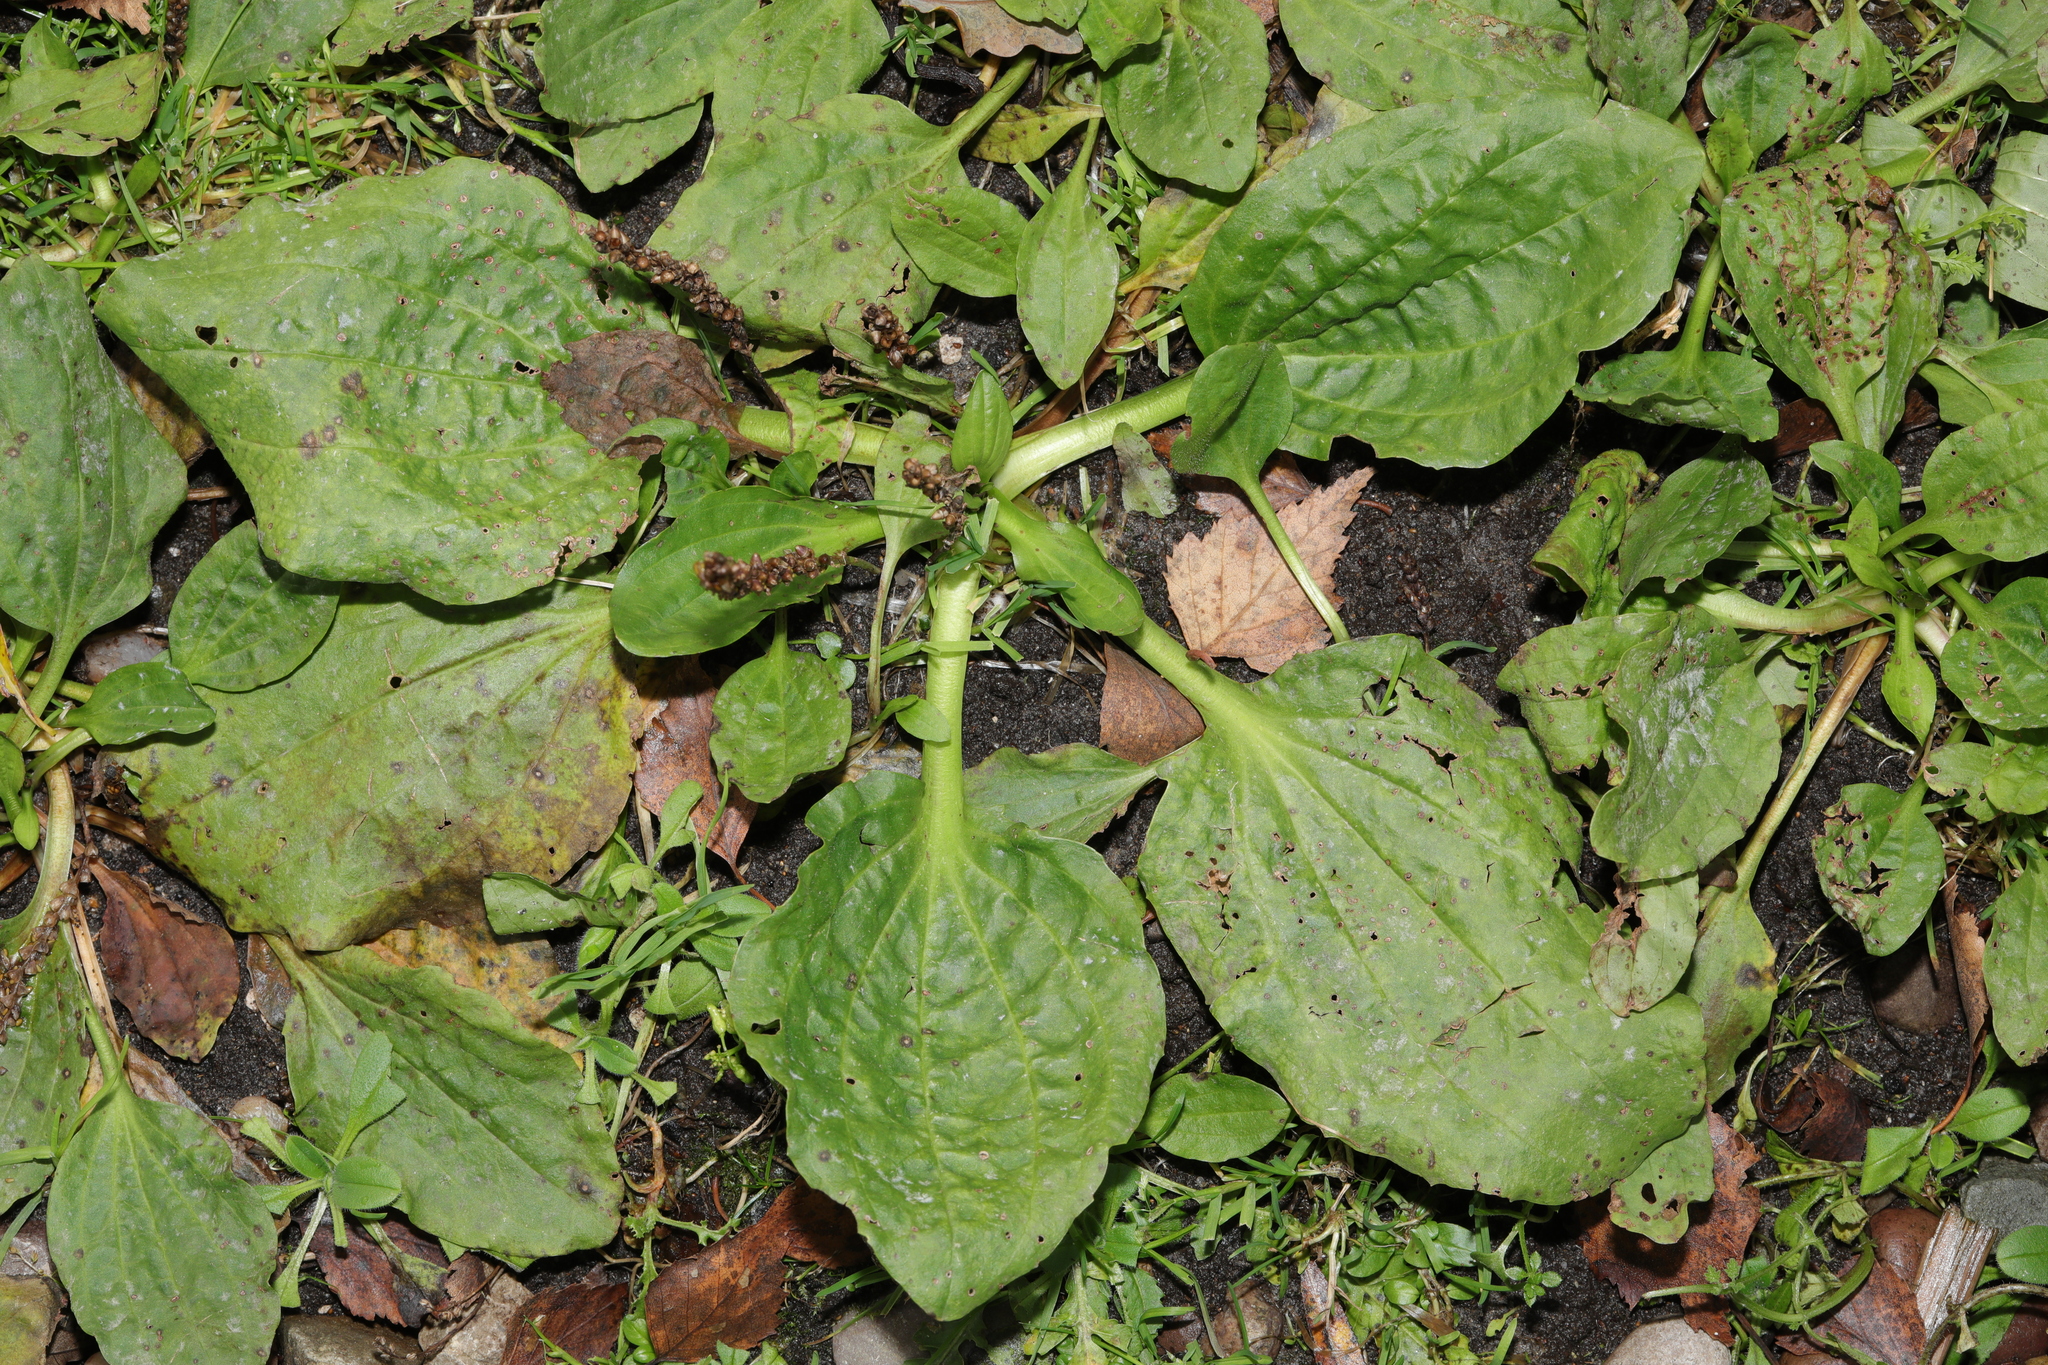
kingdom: Plantae
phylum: Tracheophyta
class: Magnoliopsida
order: Lamiales
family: Plantaginaceae
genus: Plantago
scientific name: Plantago major
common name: Common plantain
